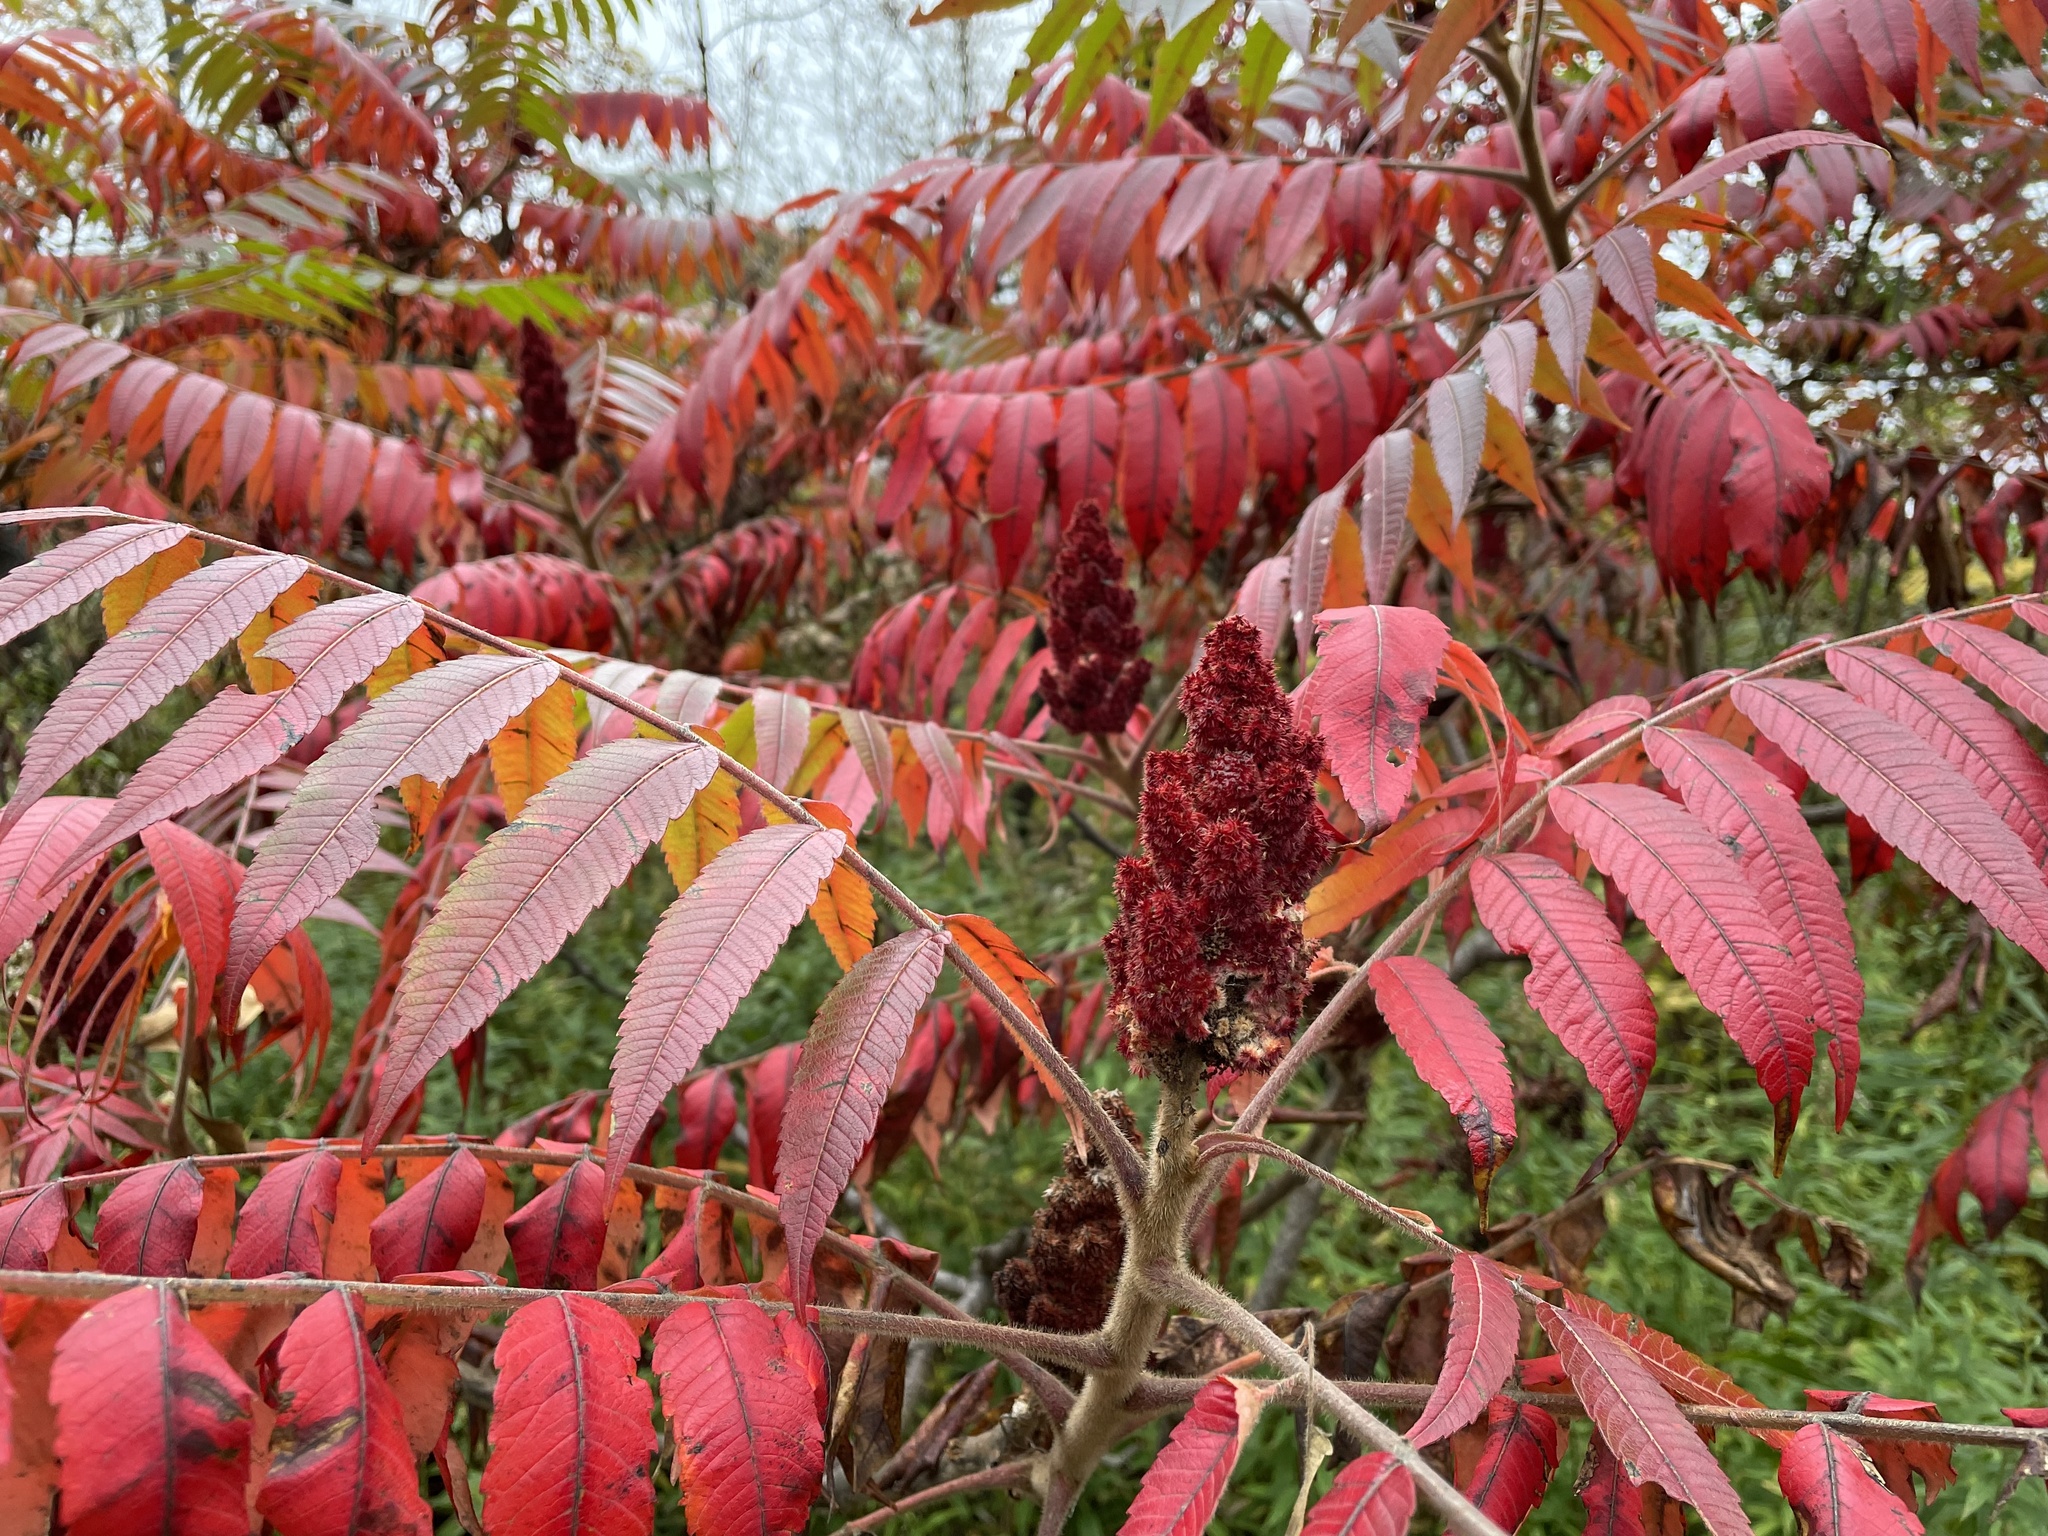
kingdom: Plantae
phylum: Tracheophyta
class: Magnoliopsida
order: Sapindales
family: Anacardiaceae
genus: Rhus
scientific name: Rhus typhina
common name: Staghorn sumac
